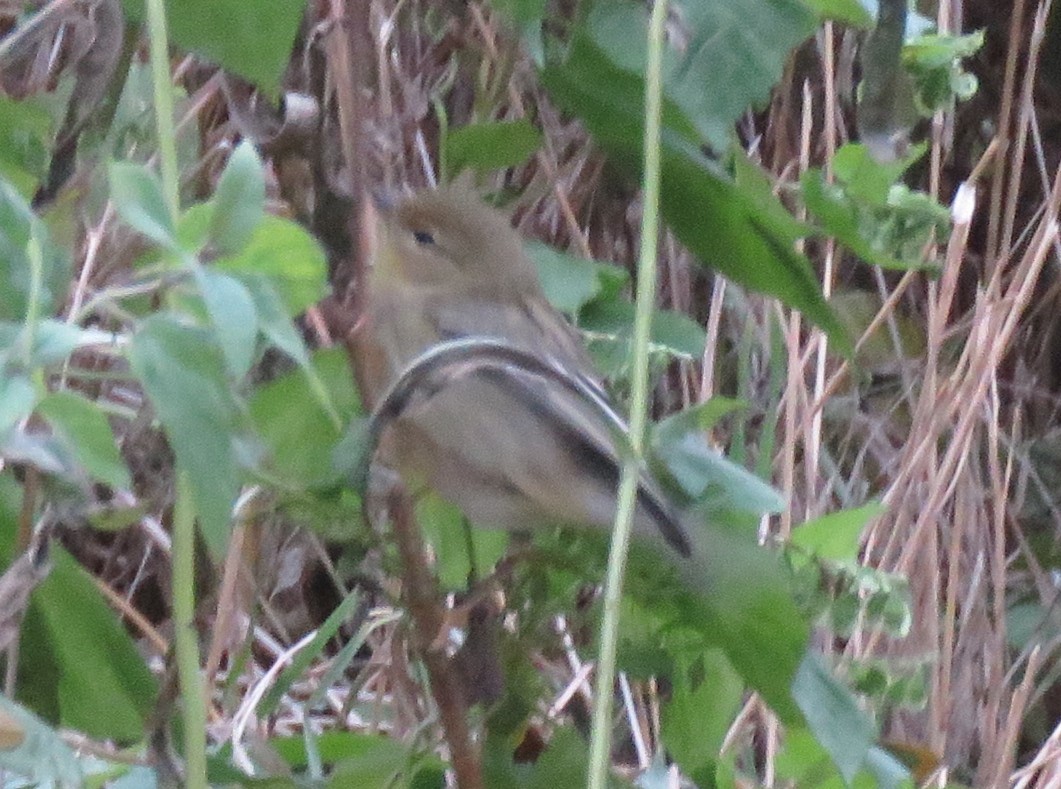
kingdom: Animalia
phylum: Chordata
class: Aves
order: Passeriformes
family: Parulidae
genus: Setophaga
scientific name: Setophaga striata
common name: Blackpoll warbler
